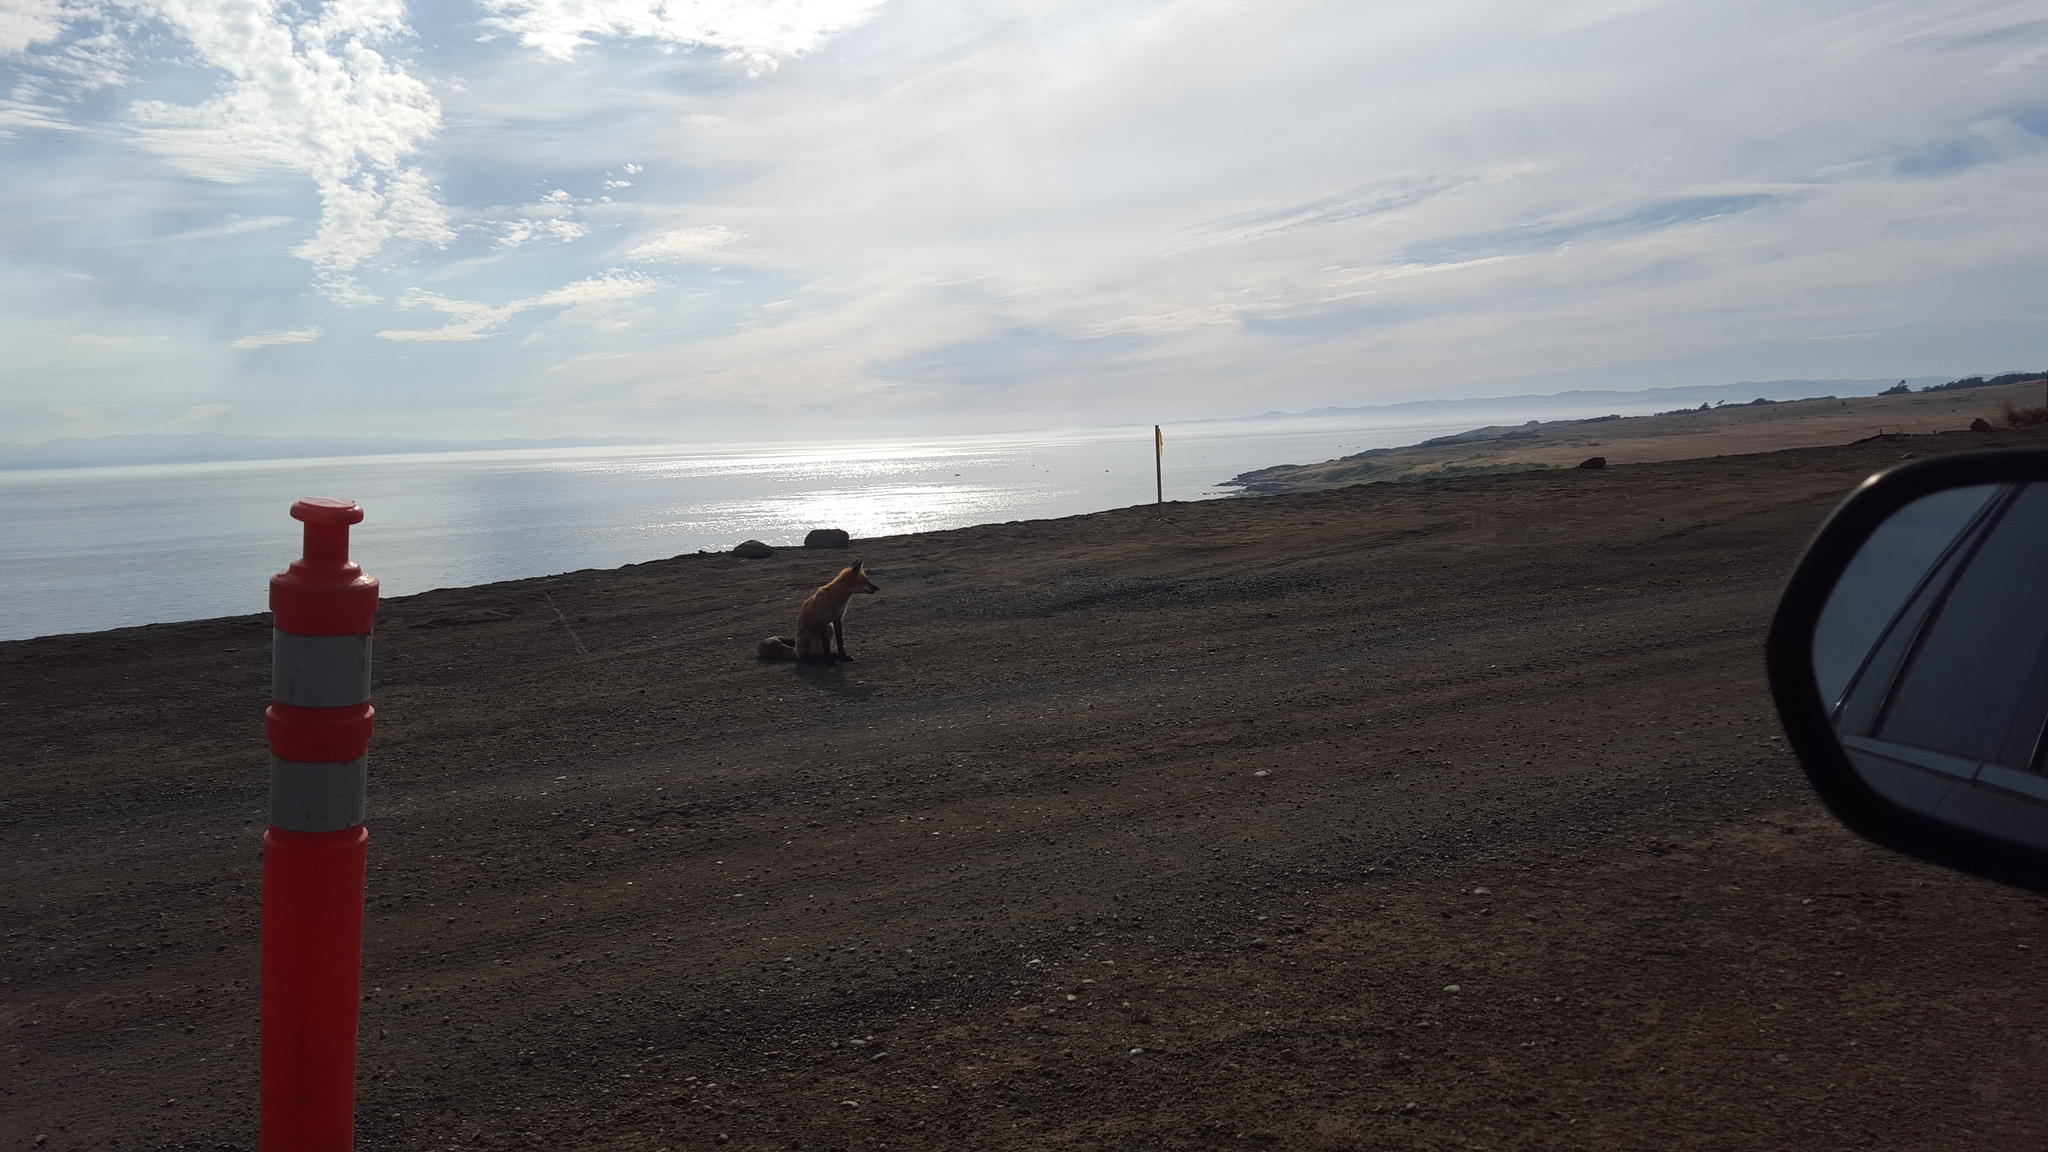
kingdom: Animalia
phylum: Chordata
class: Mammalia
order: Carnivora
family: Canidae
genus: Vulpes
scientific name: Vulpes vulpes
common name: Red fox
